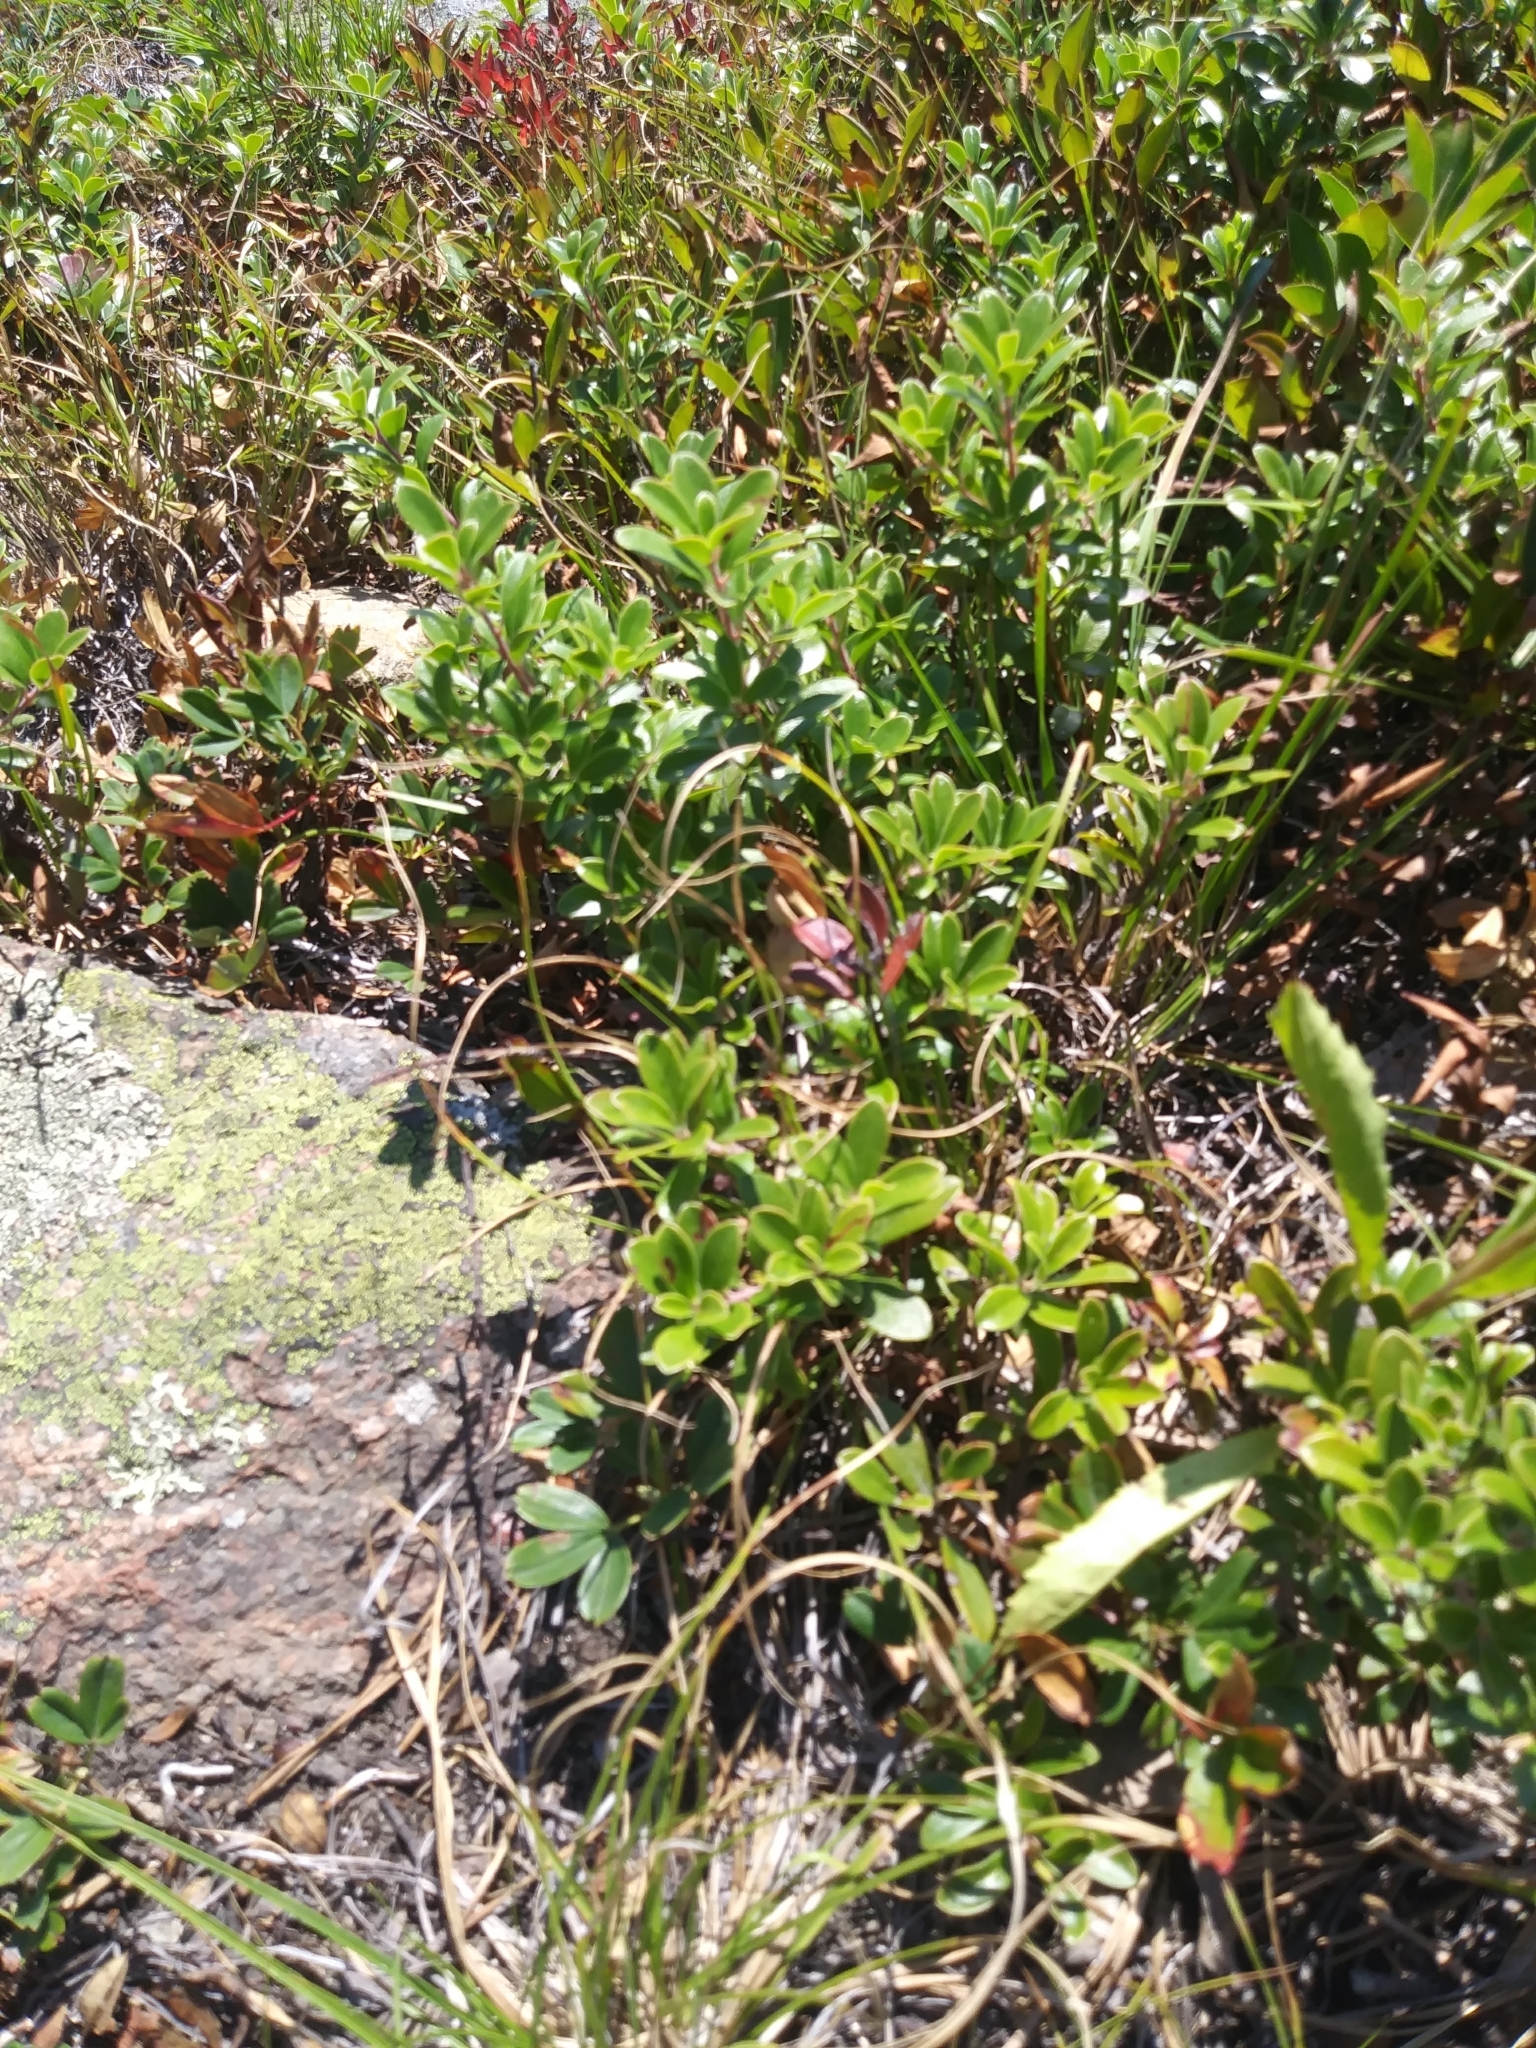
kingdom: Plantae
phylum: Tracheophyta
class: Magnoliopsida
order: Ericales
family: Ericaceae
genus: Arctostaphylos
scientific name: Arctostaphylos uva-ursi
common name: Bearberry
